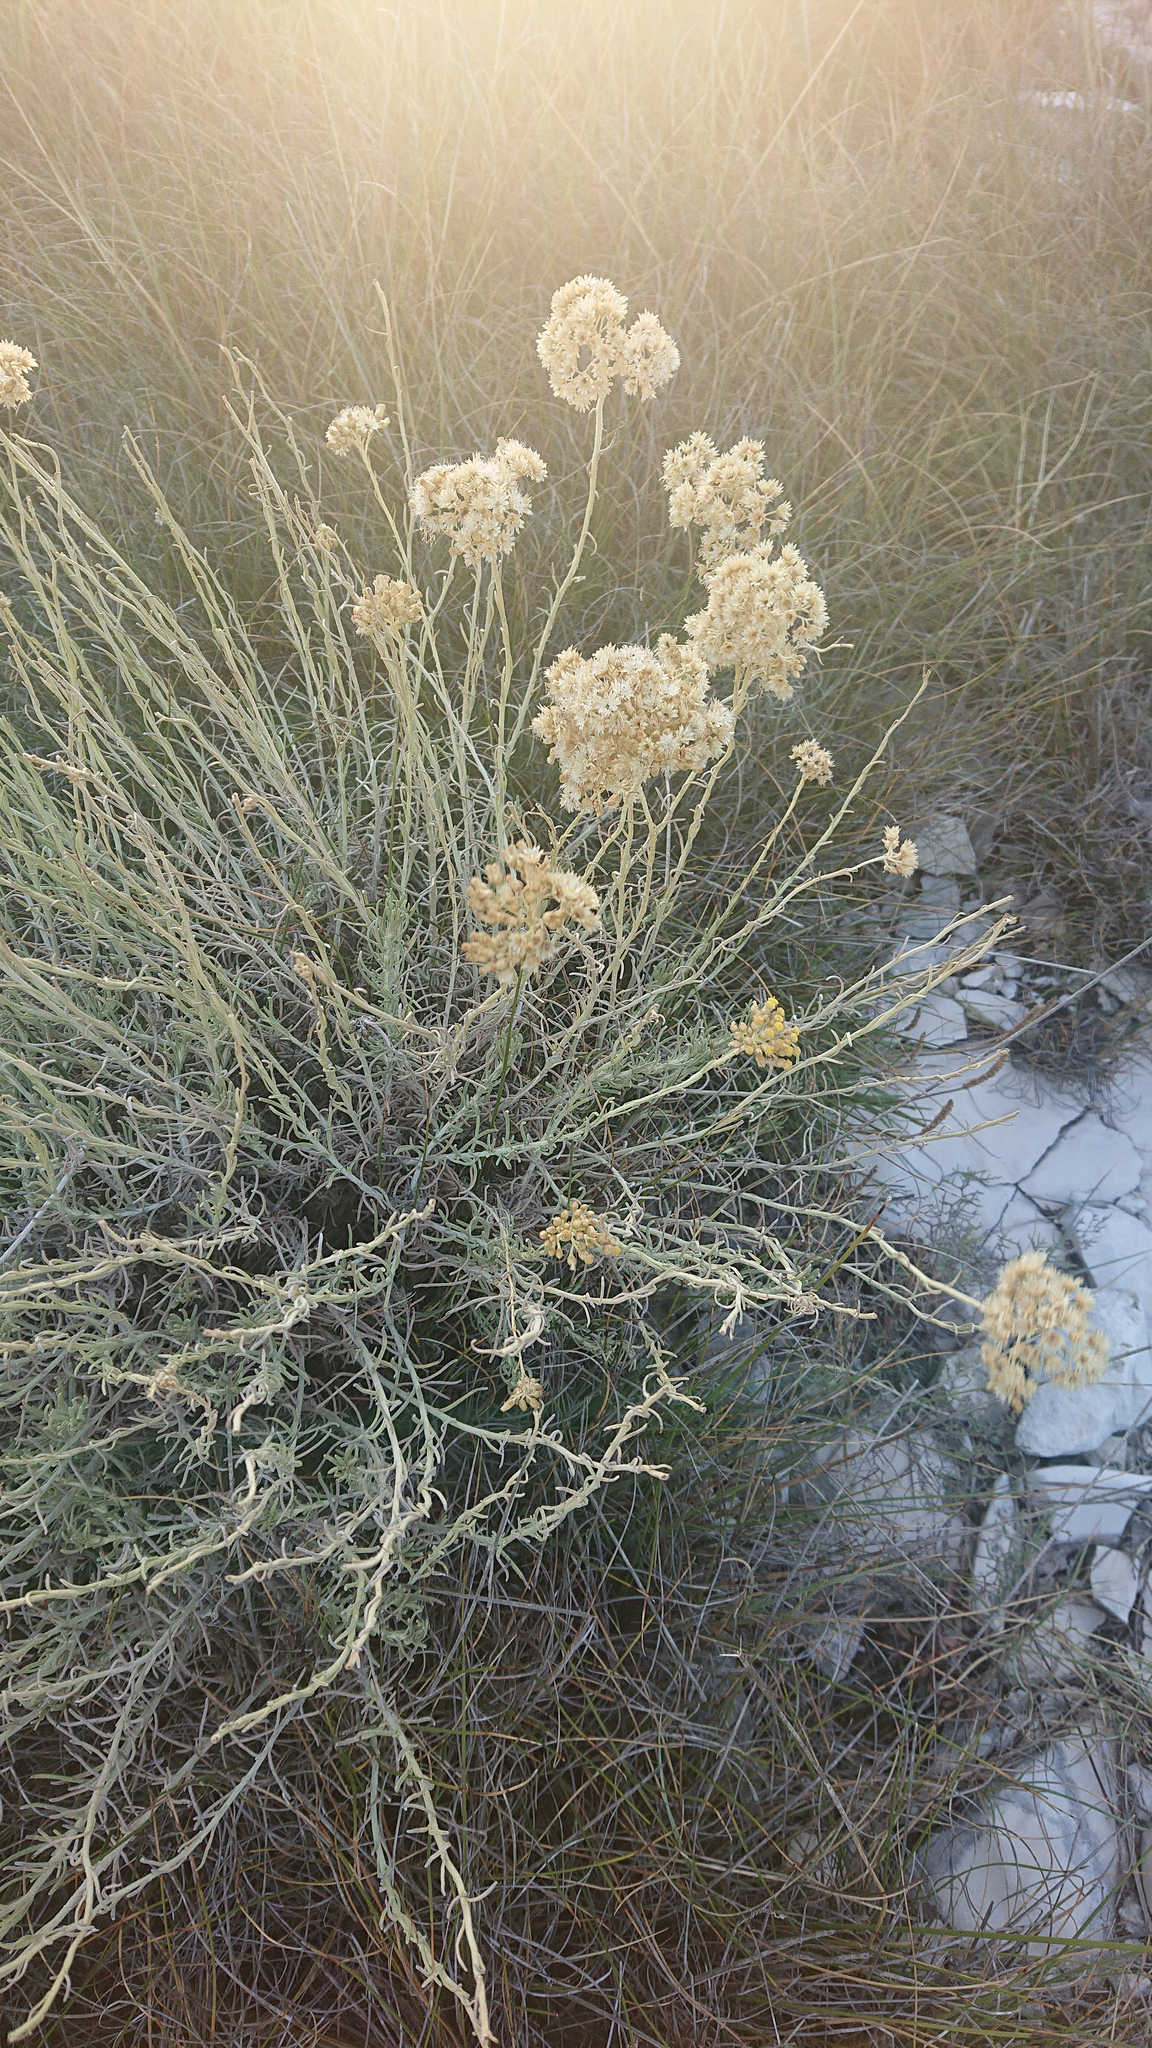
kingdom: Plantae
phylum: Tracheophyta
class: Magnoliopsida
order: Asterales
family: Asteraceae
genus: Helichrysum
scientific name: Helichrysum italicum
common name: Curryplant
